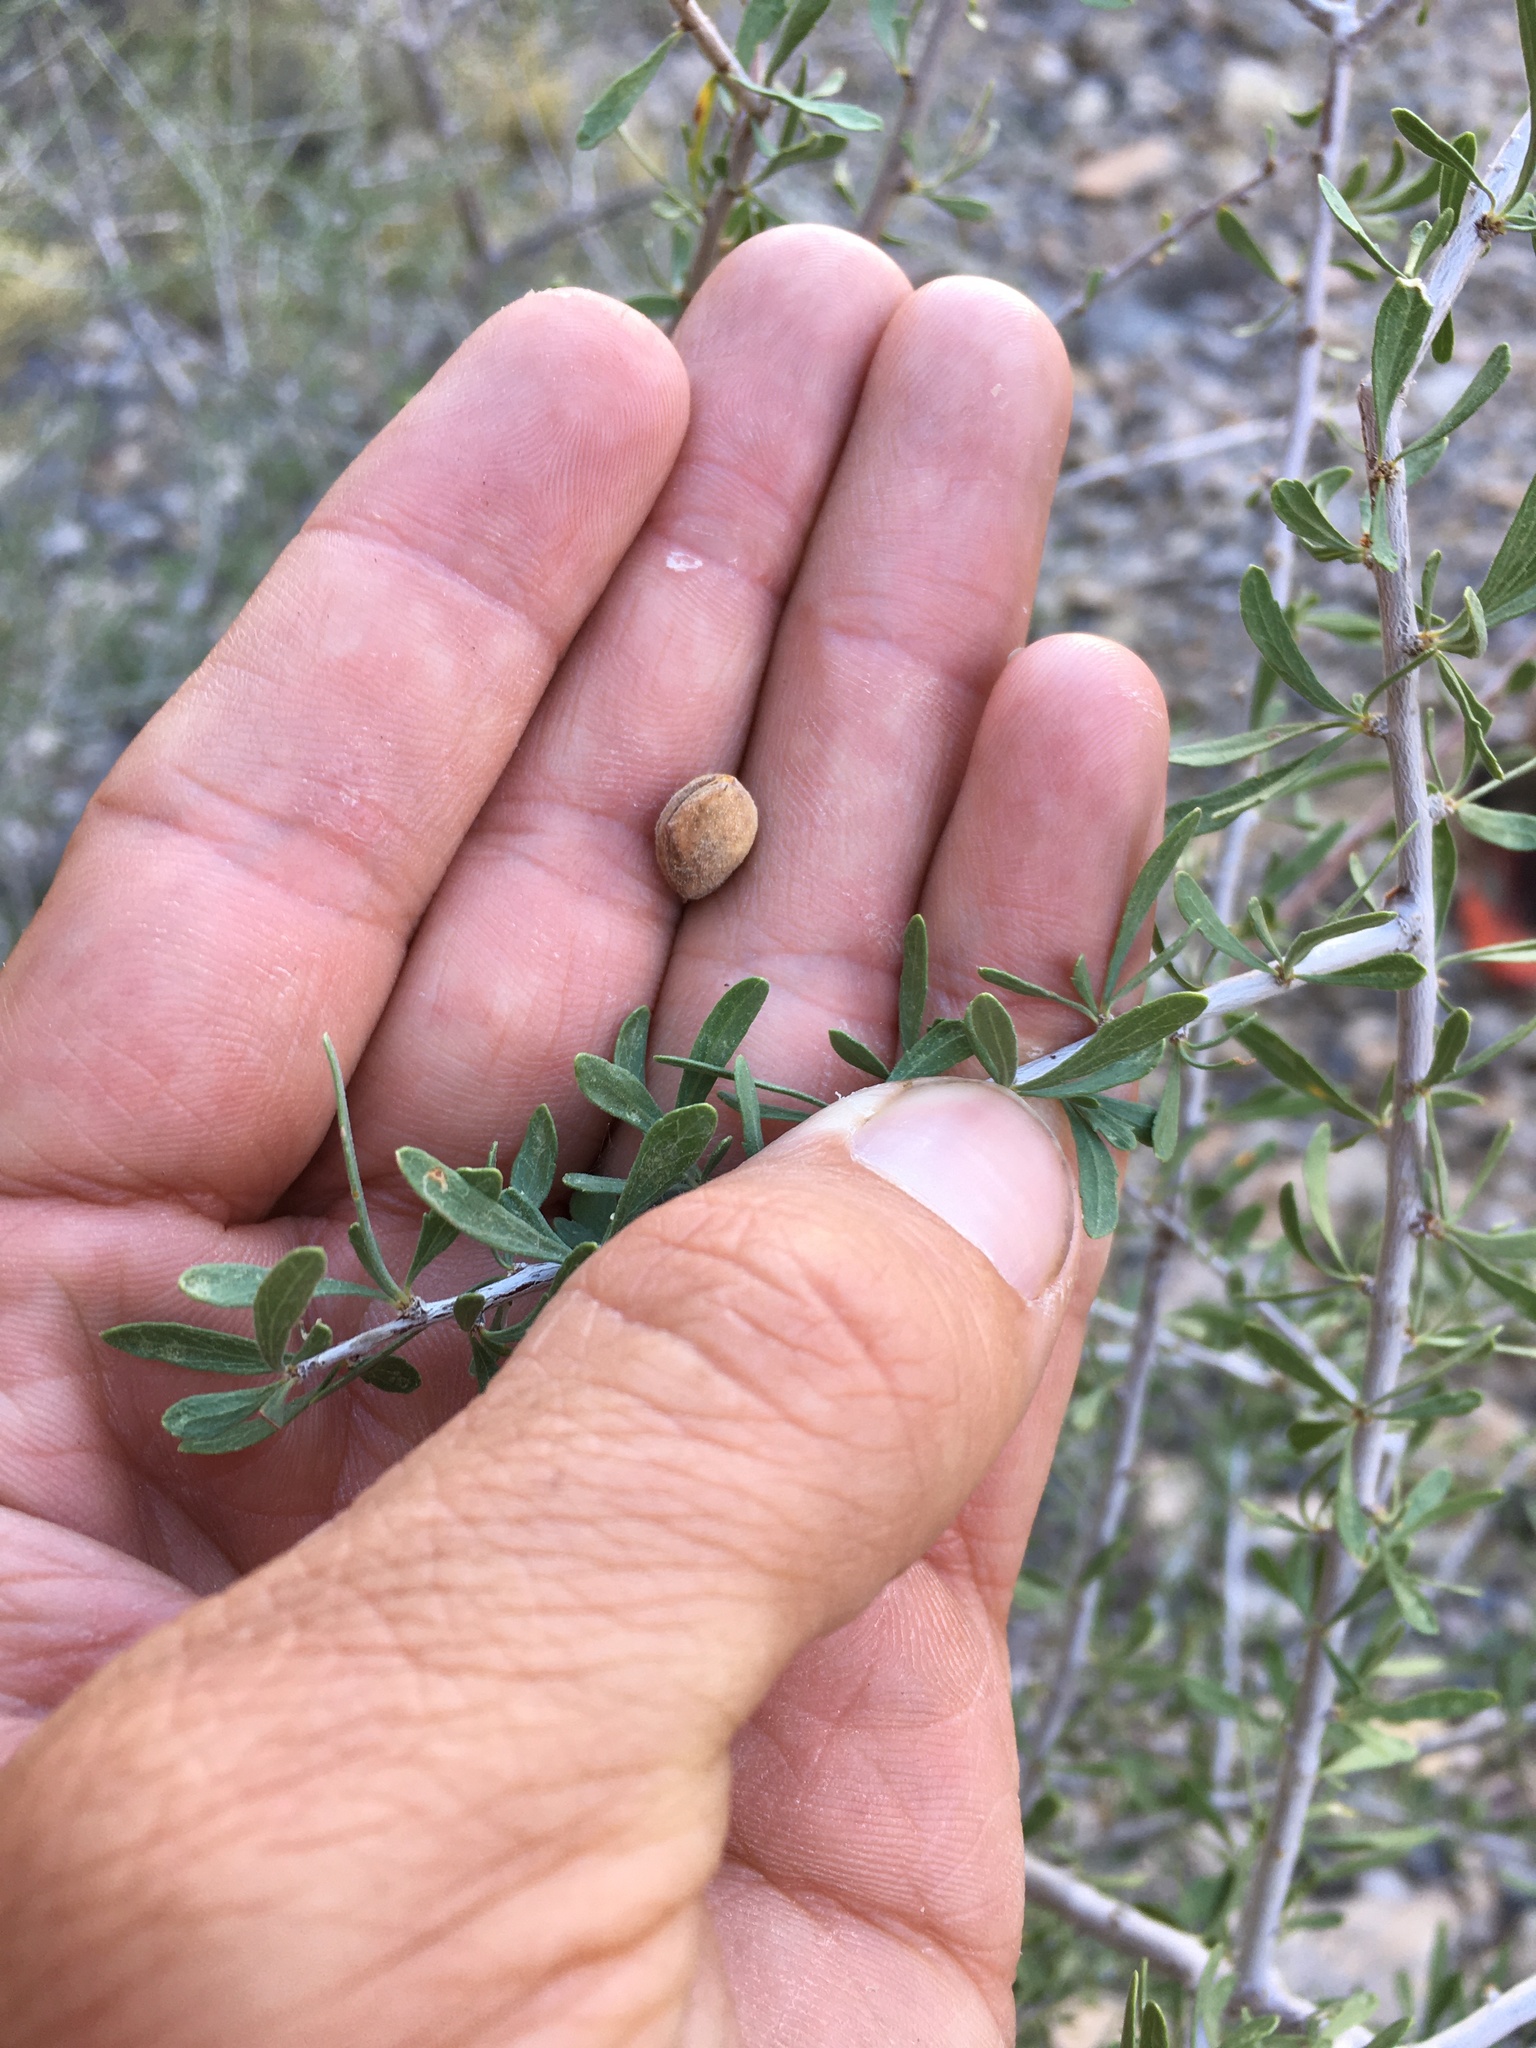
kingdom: Plantae
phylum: Tracheophyta
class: Magnoliopsida
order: Rosales
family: Rosaceae
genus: Prunus
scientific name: Prunus fasciculata
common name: Desert almond
